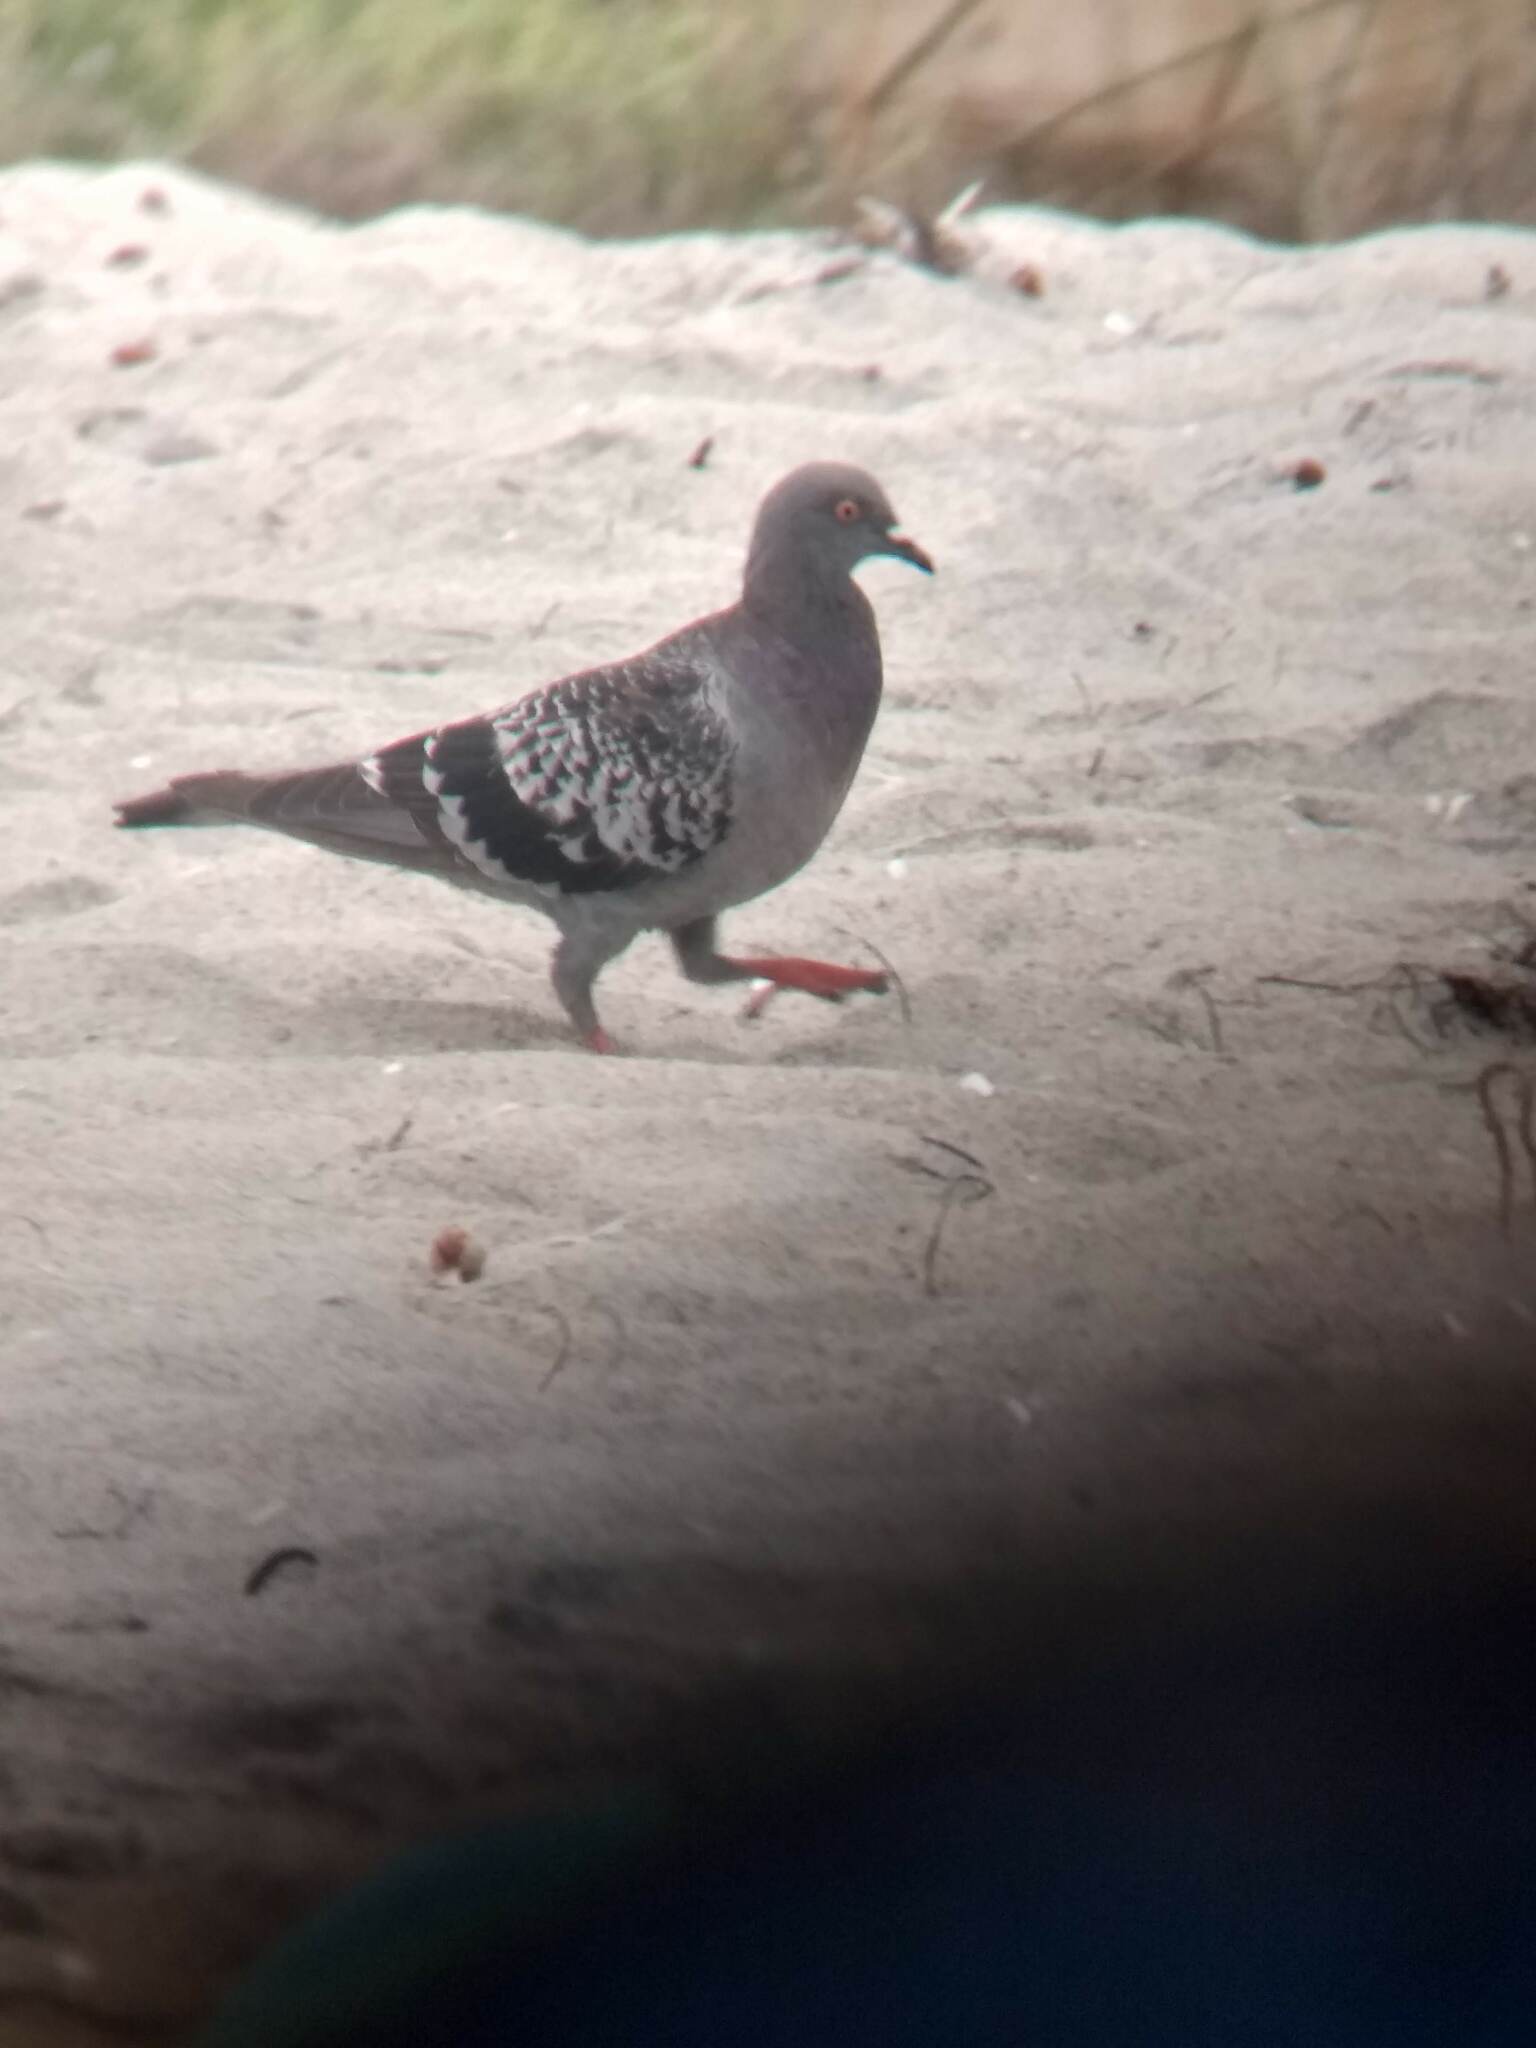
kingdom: Animalia
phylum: Chordata
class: Aves
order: Columbiformes
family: Columbidae
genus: Columba
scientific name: Columba livia
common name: Rock pigeon
